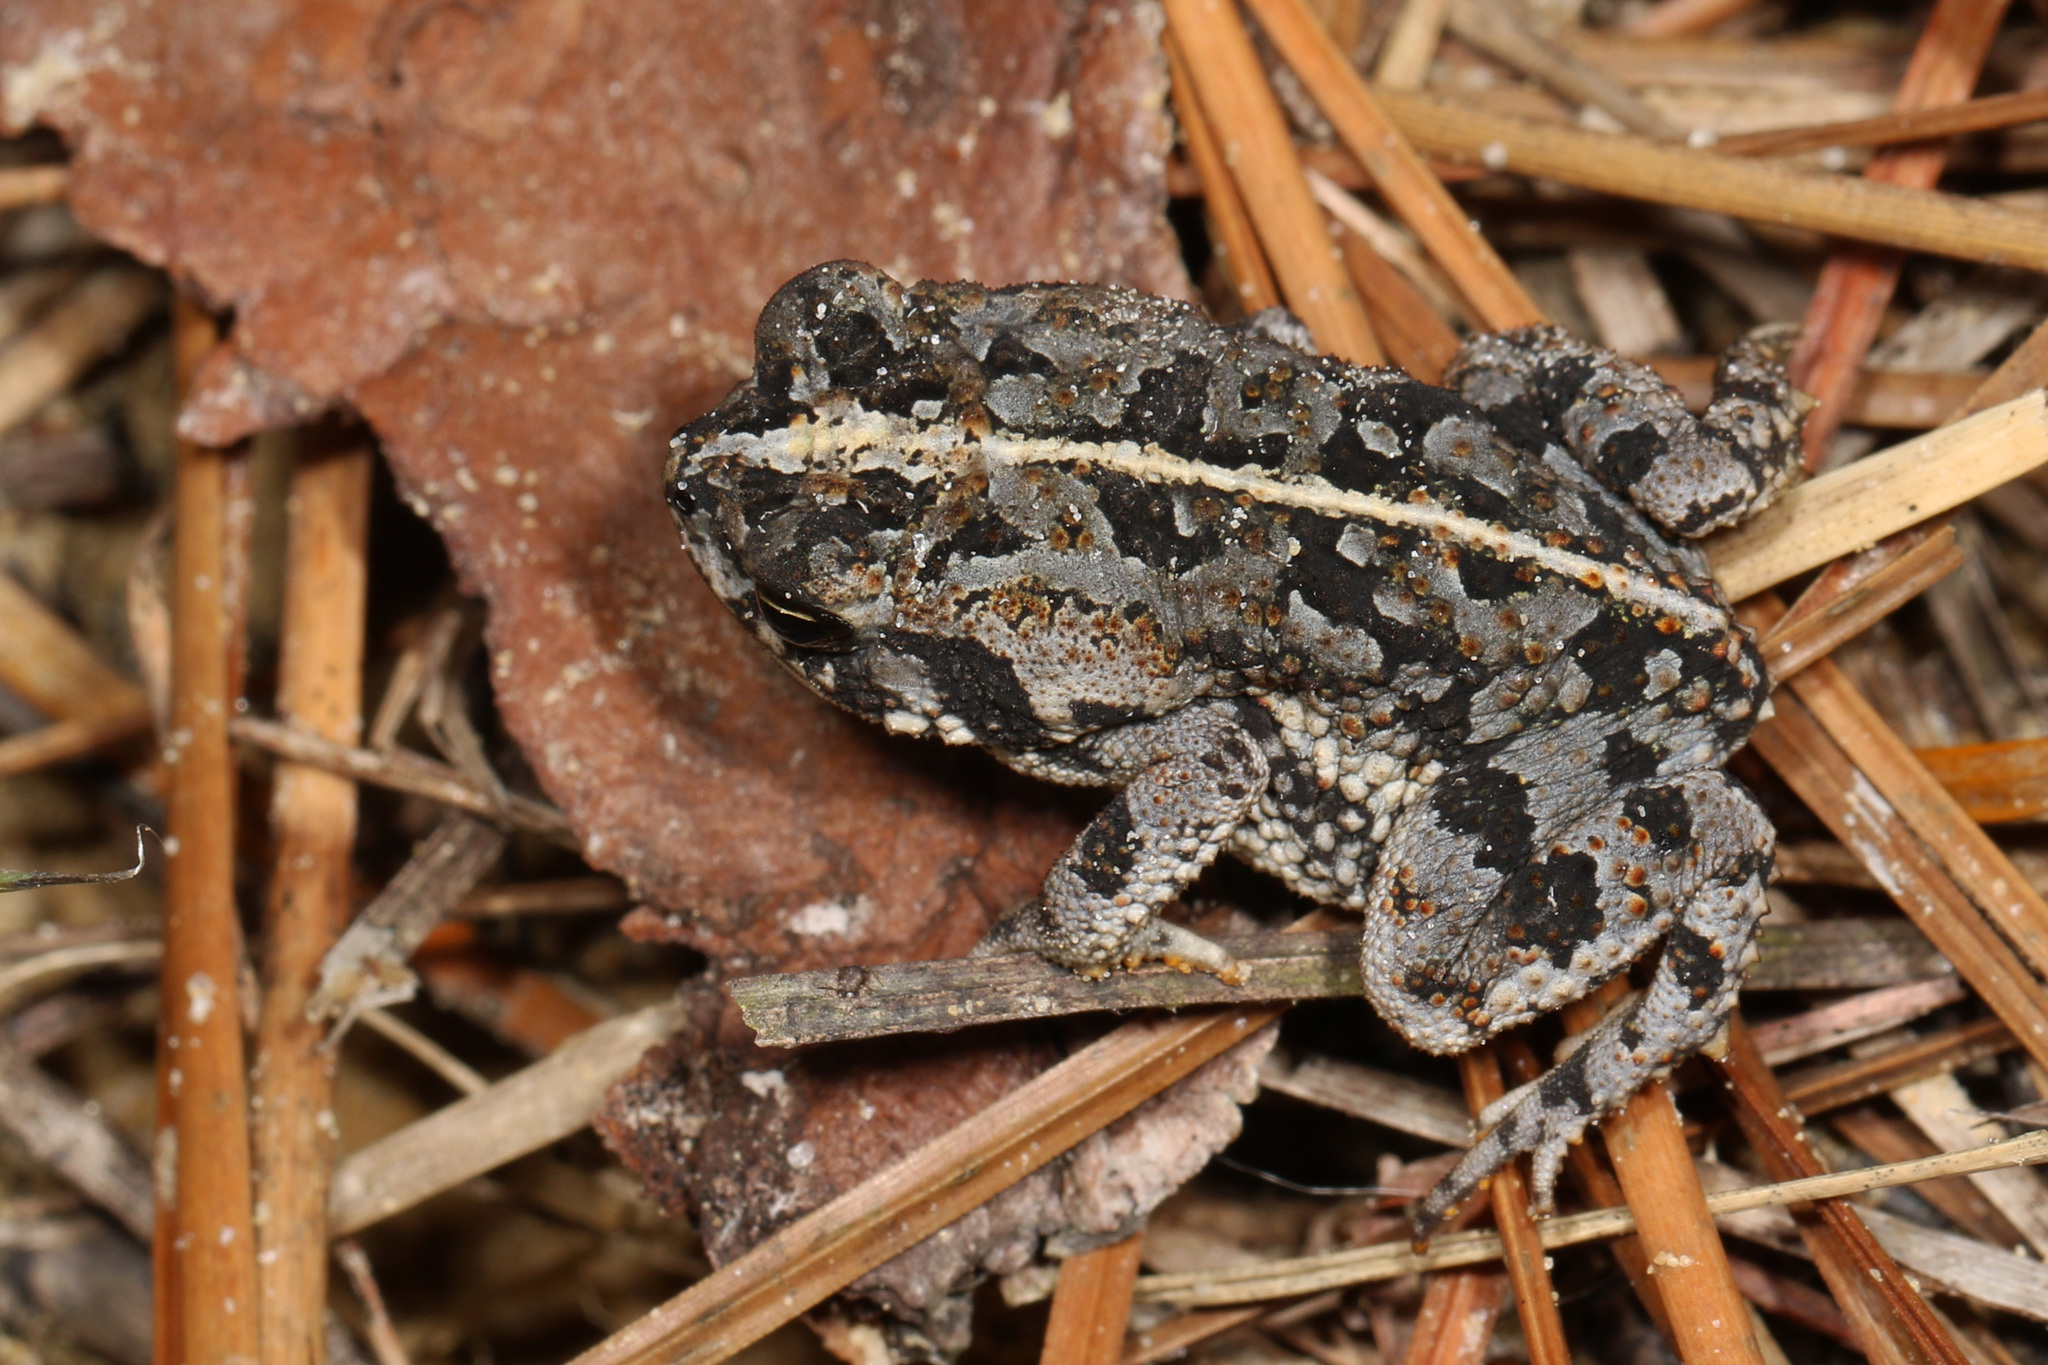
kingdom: Animalia
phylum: Chordata
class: Amphibia
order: Anura
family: Bufonidae
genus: Anaxyrus
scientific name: Anaxyrus quercicus
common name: Oak toad
